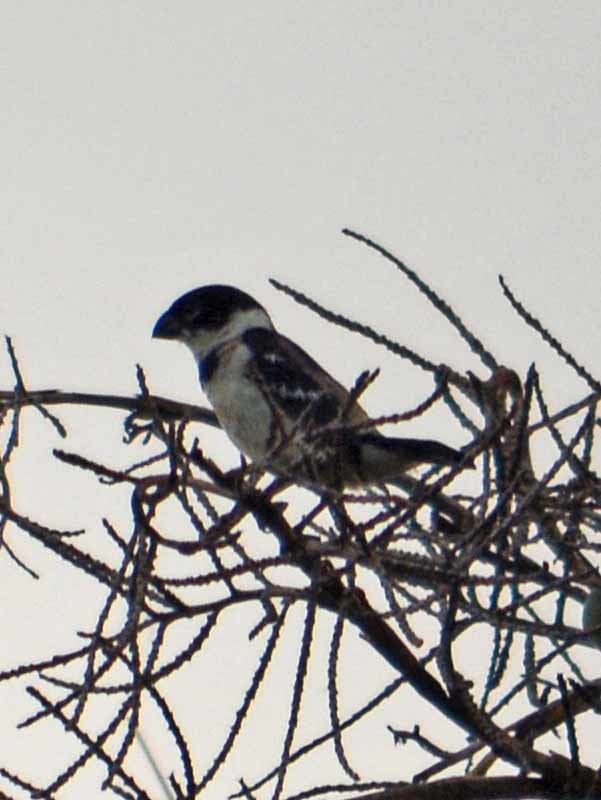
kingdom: Animalia
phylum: Chordata
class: Aves
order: Passeriformes
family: Thraupidae
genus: Sporophila
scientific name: Sporophila morelleti
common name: Morelet's seedeater
